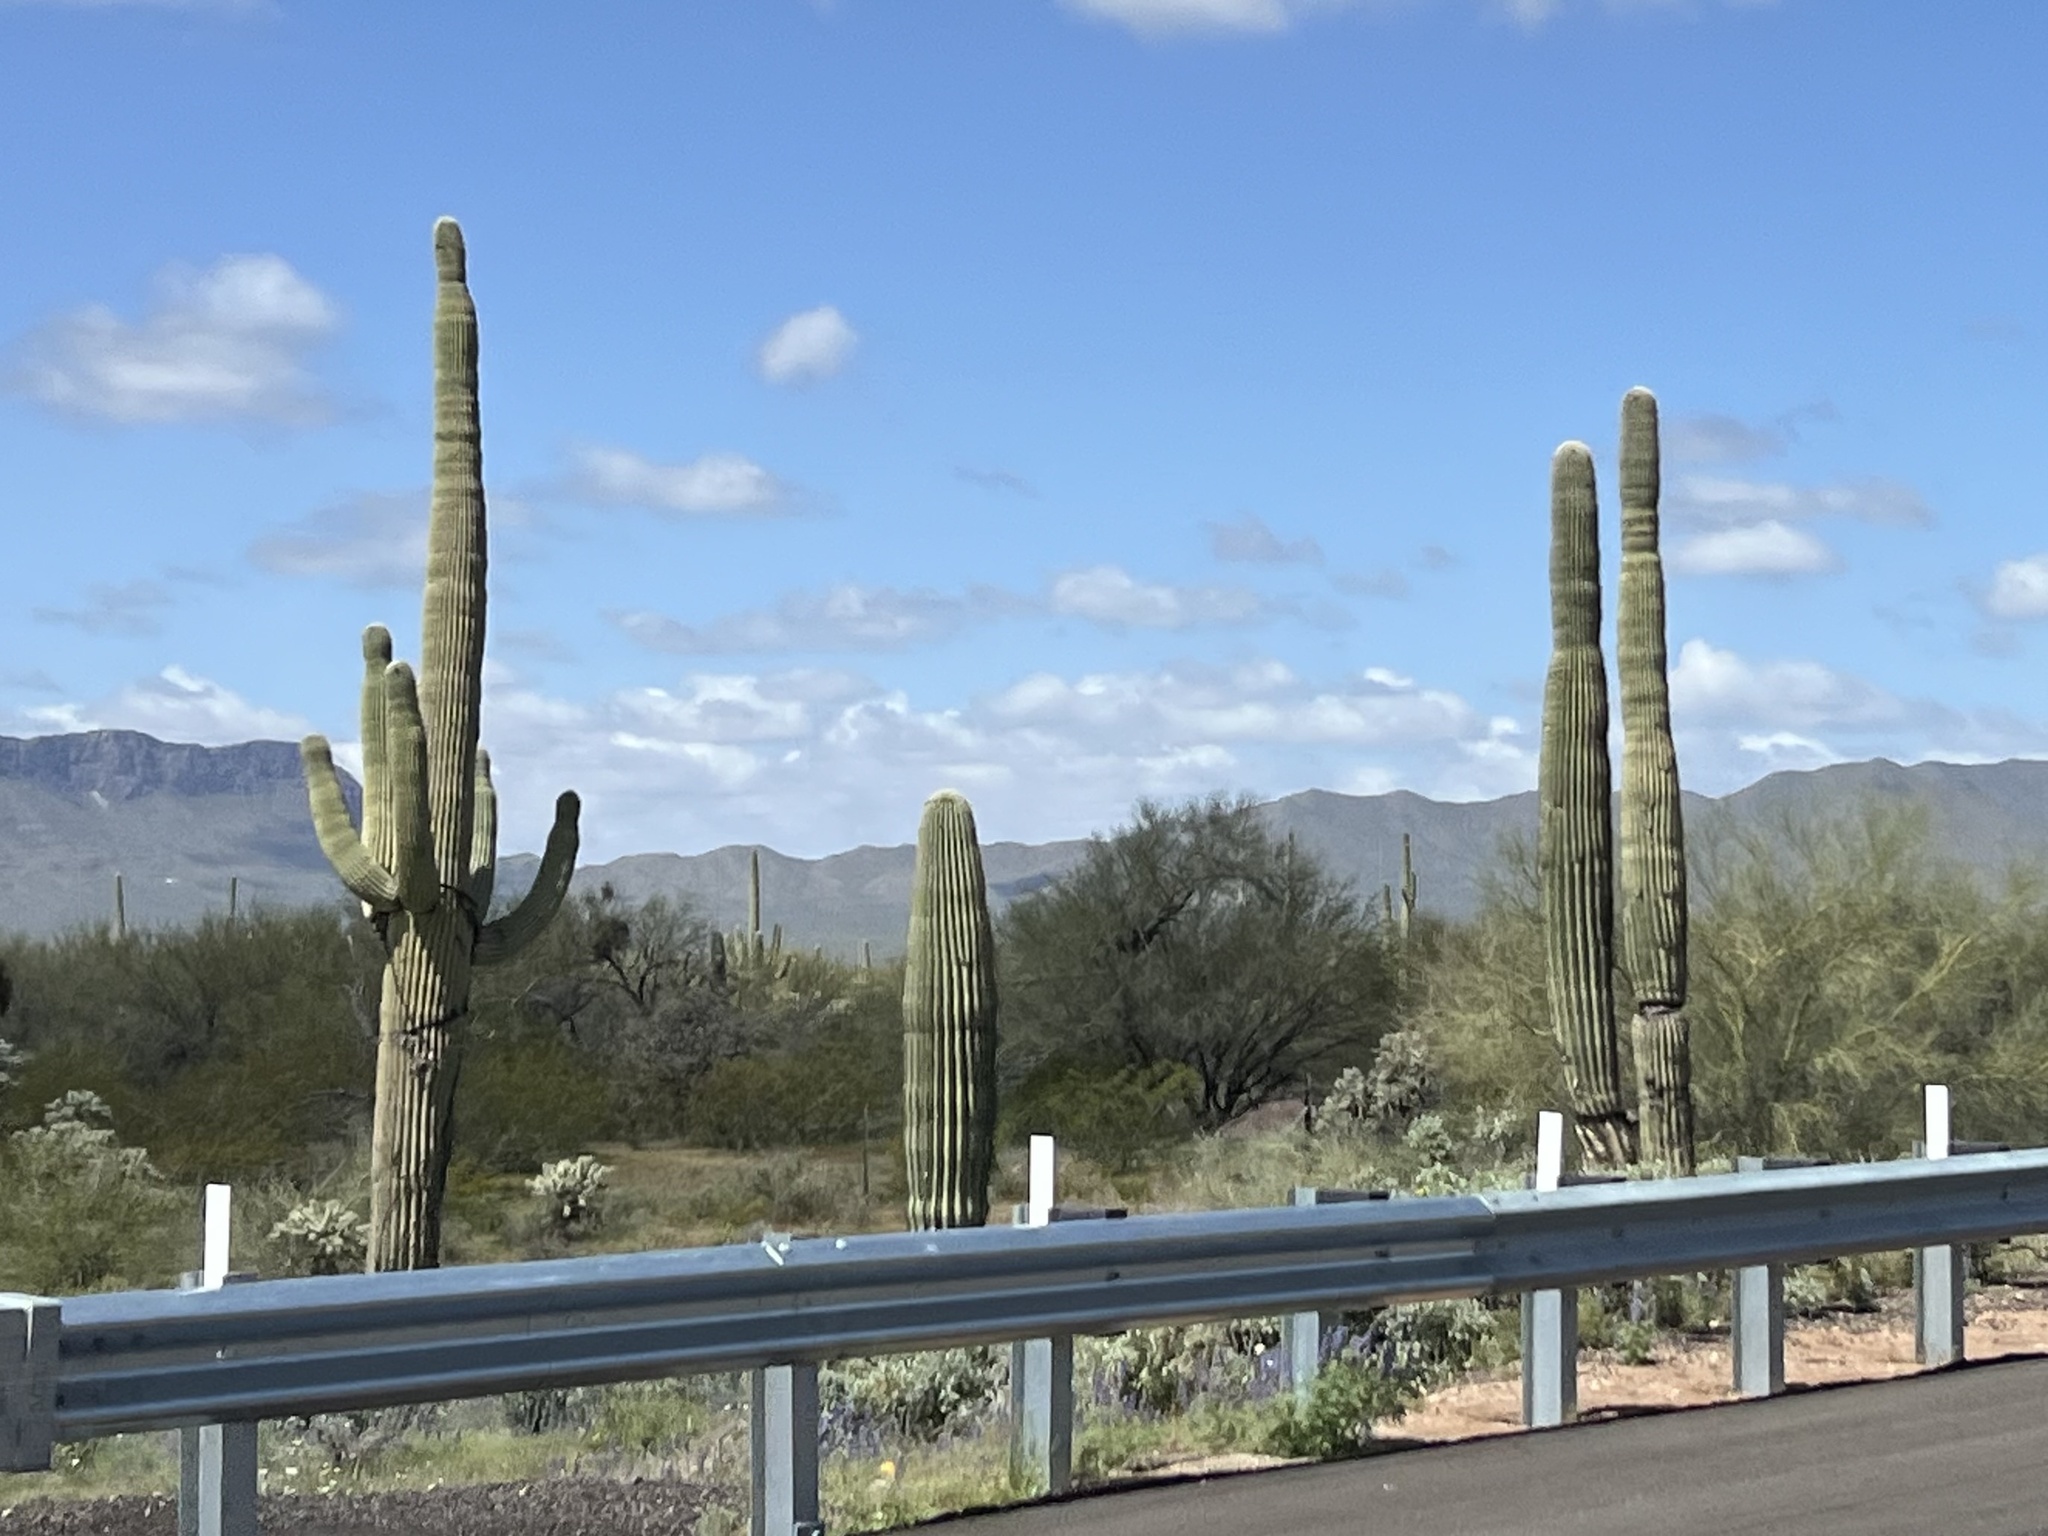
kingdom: Plantae
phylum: Tracheophyta
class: Magnoliopsida
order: Caryophyllales
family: Cactaceae
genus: Carnegiea
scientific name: Carnegiea gigantea
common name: Saguaro
